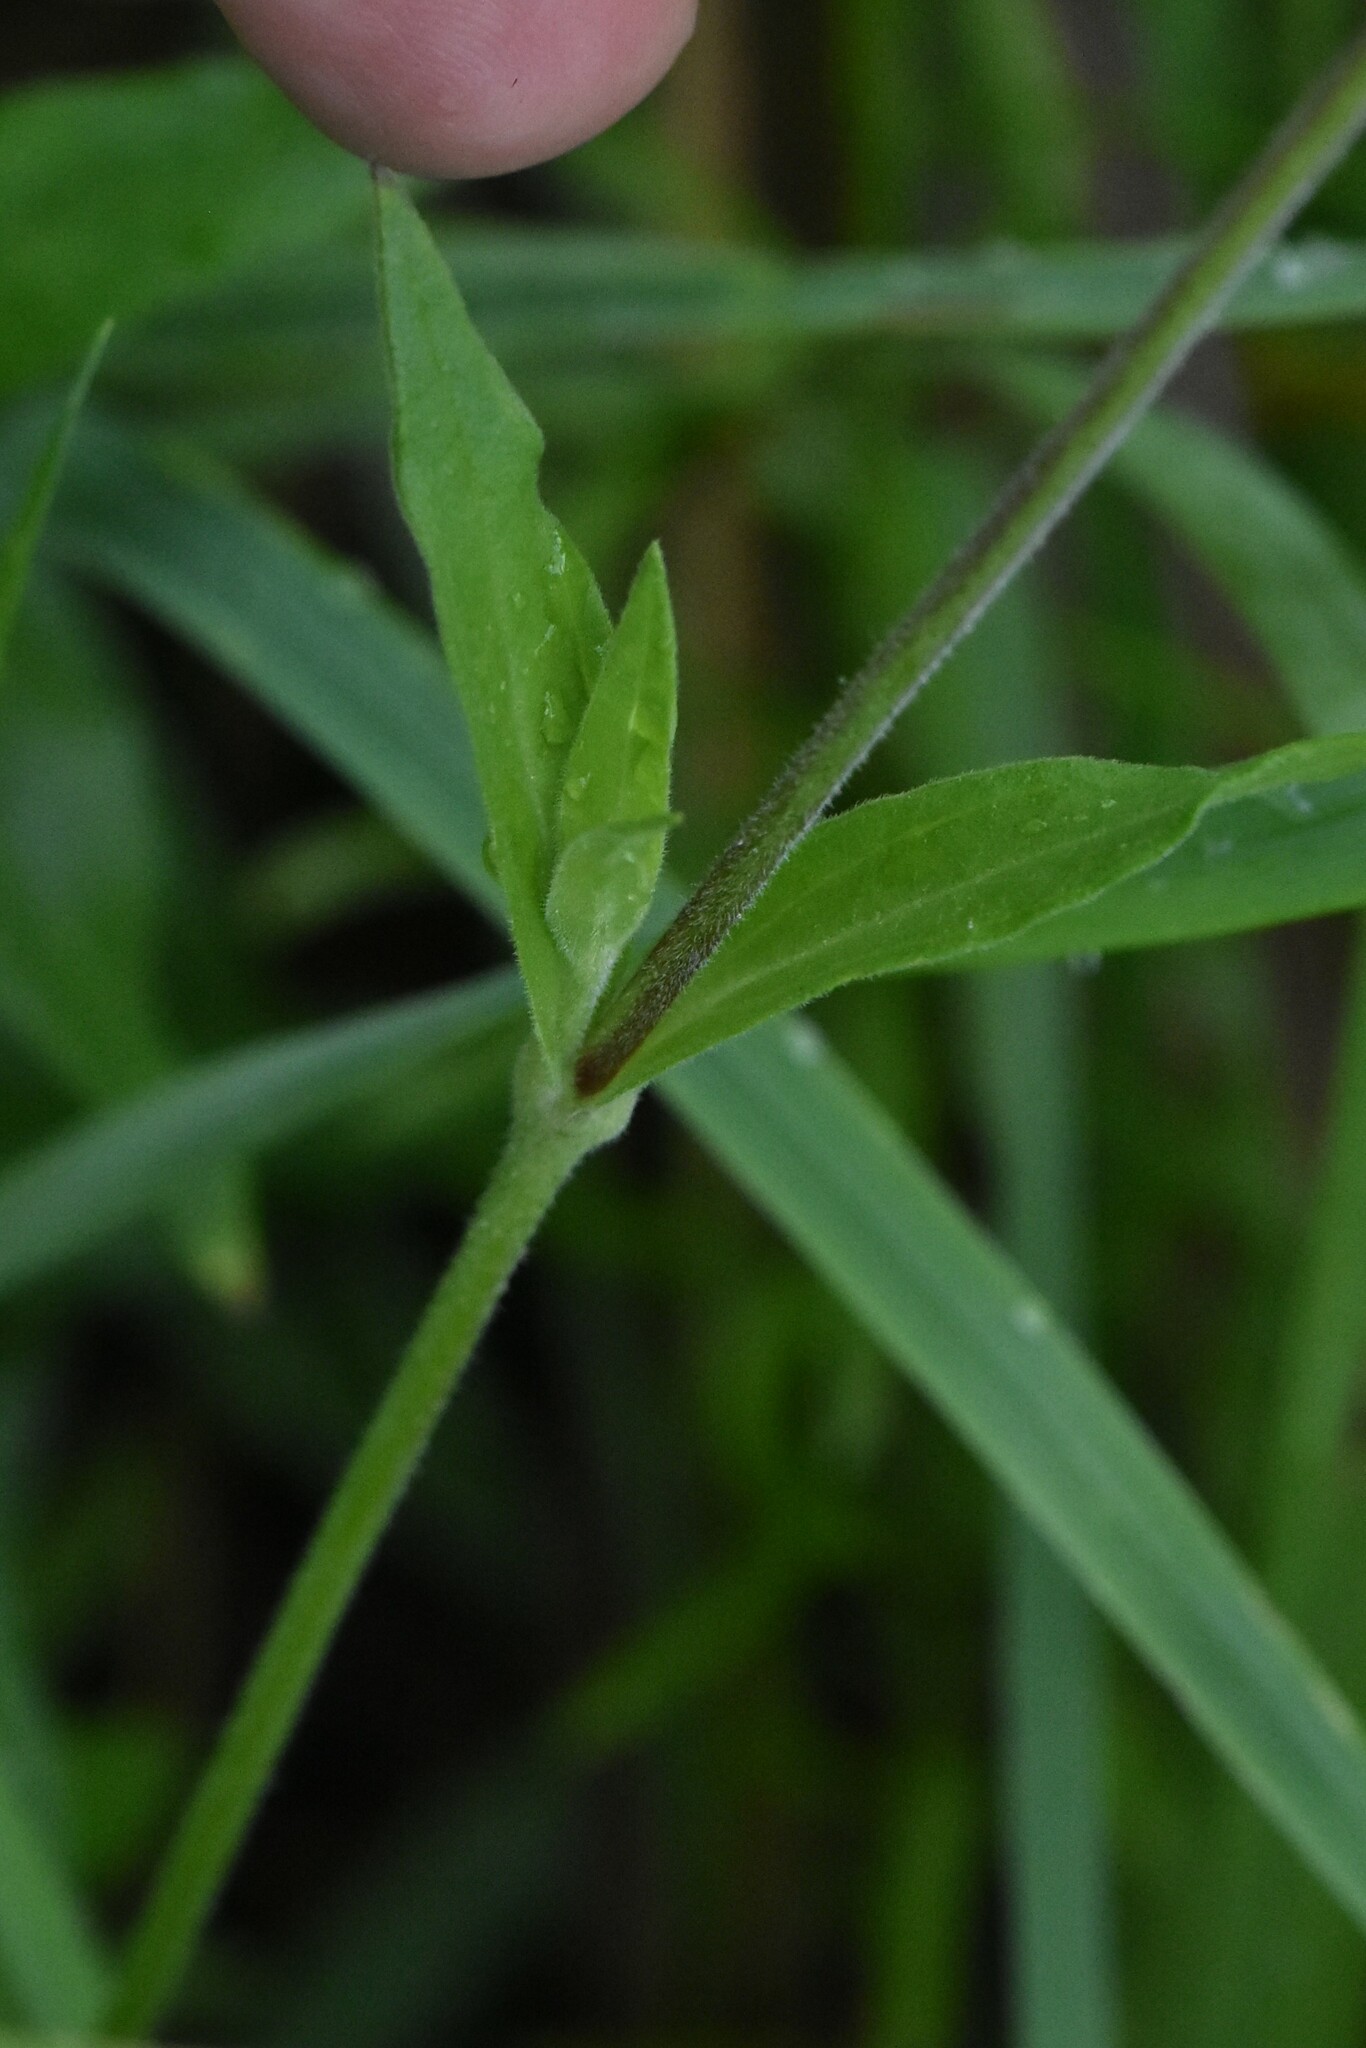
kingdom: Plantae
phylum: Tracheophyta
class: Magnoliopsida
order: Caryophyllales
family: Caryophyllaceae
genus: Silene
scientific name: Silene latifolia
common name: White campion
